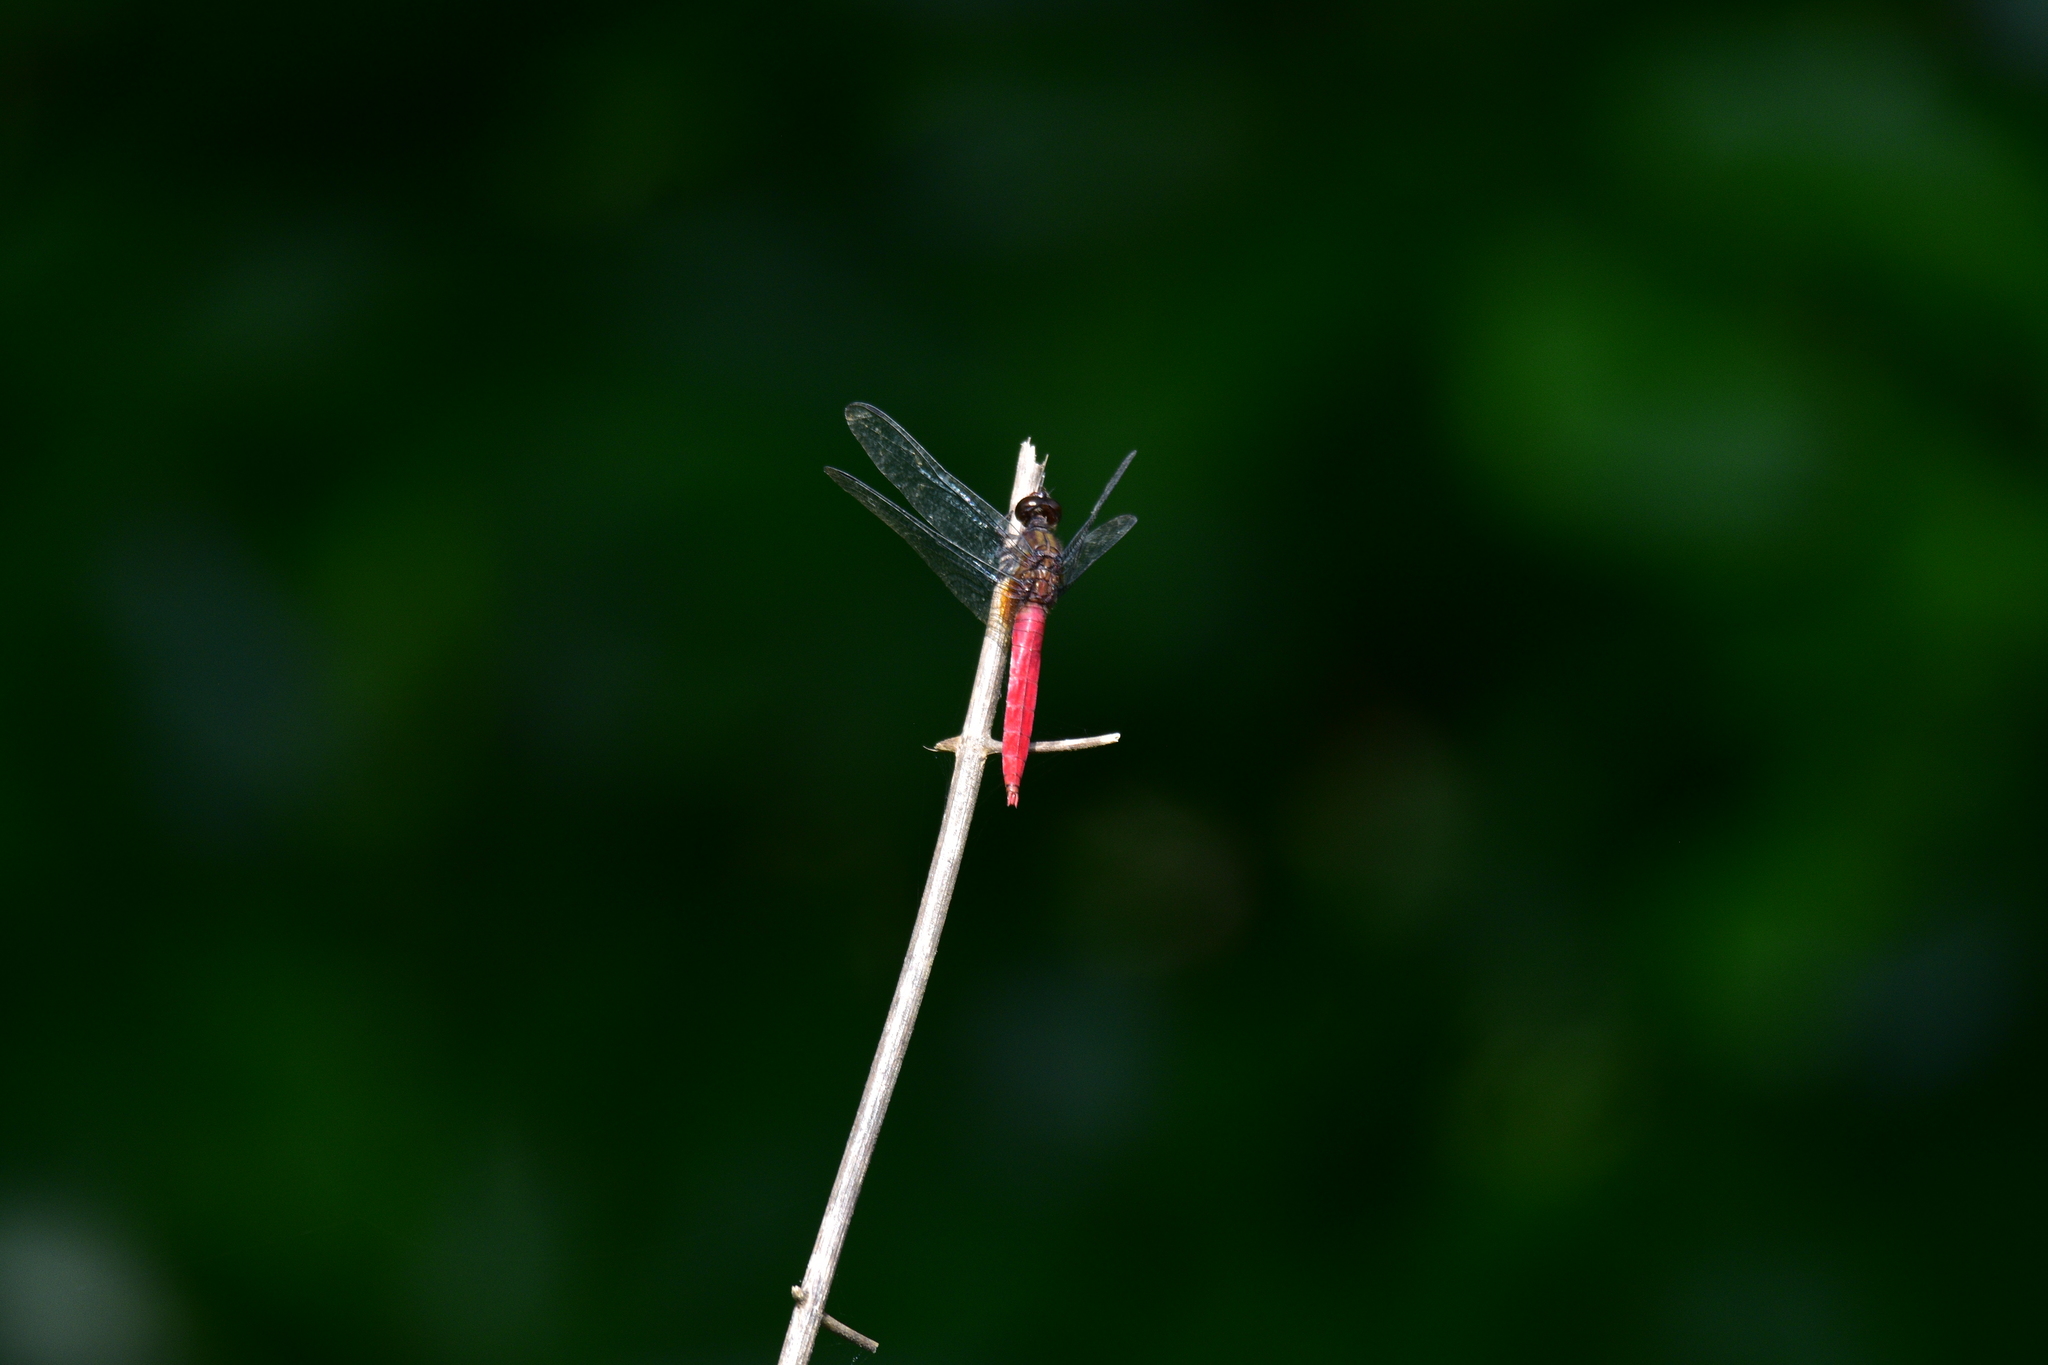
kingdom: Animalia
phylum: Arthropoda
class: Insecta
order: Odonata
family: Libellulidae
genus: Orthetrum
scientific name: Orthetrum chrysis
